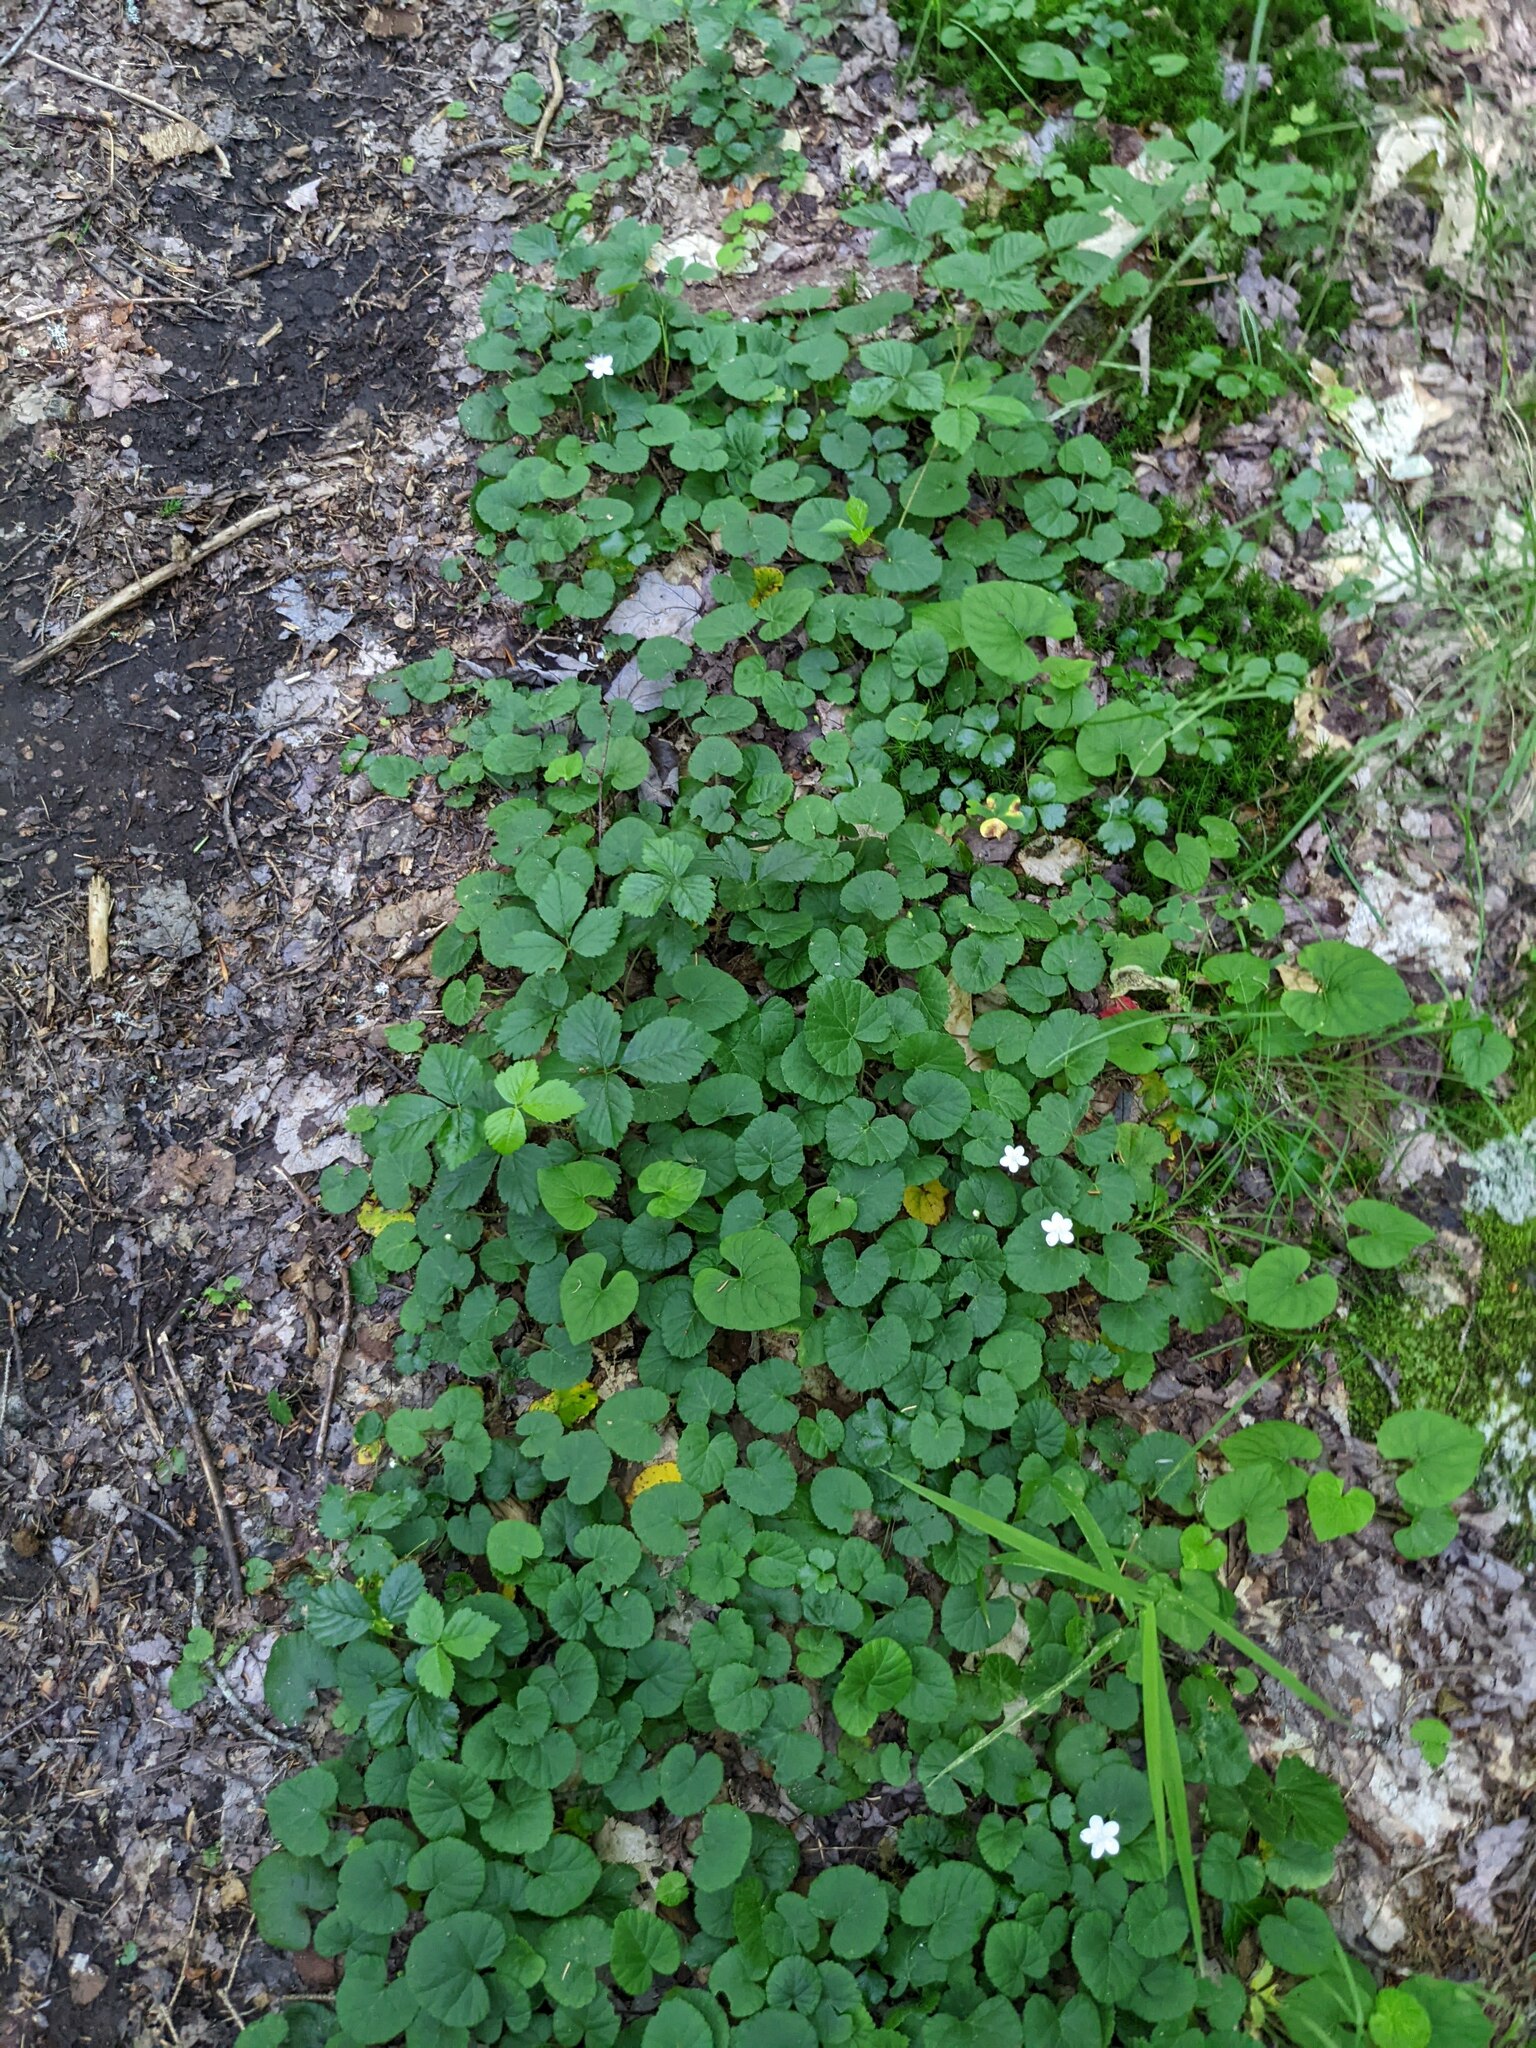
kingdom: Plantae
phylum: Tracheophyta
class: Magnoliopsida
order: Rosales
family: Rosaceae
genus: Dalibarda
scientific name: Dalibarda repens
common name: Dewdrop
